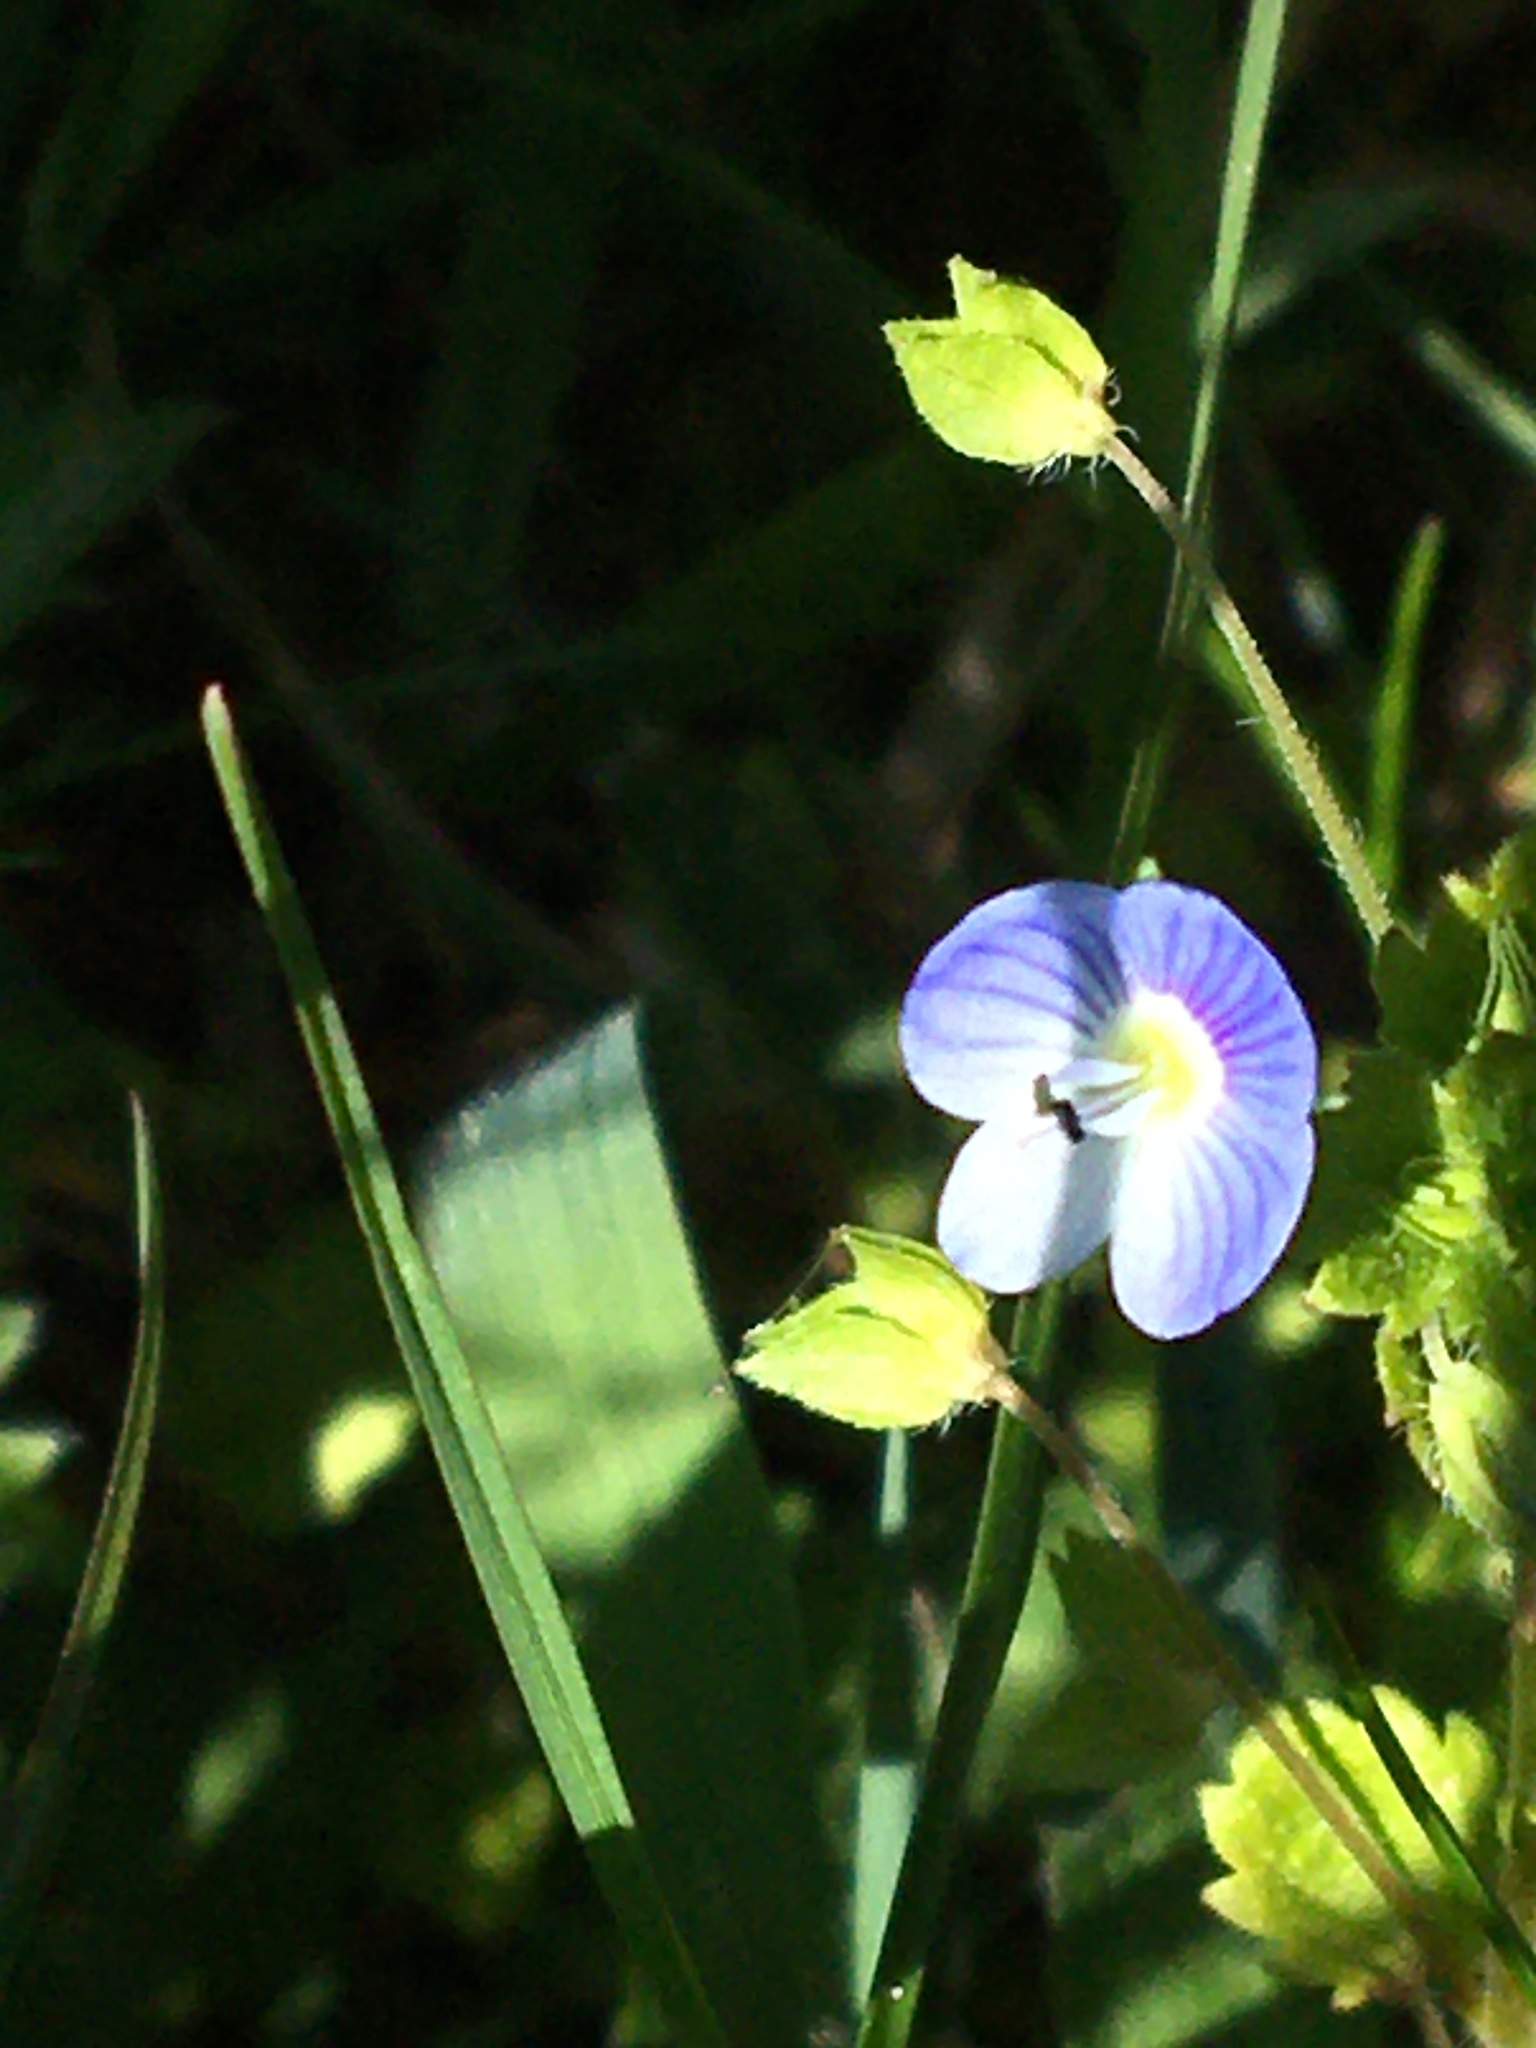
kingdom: Plantae
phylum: Tracheophyta
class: Magnoliopsida
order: Lamiales
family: Plantaginaceae
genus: Veronica
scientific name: Veronica persica
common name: Common field-speedwell
